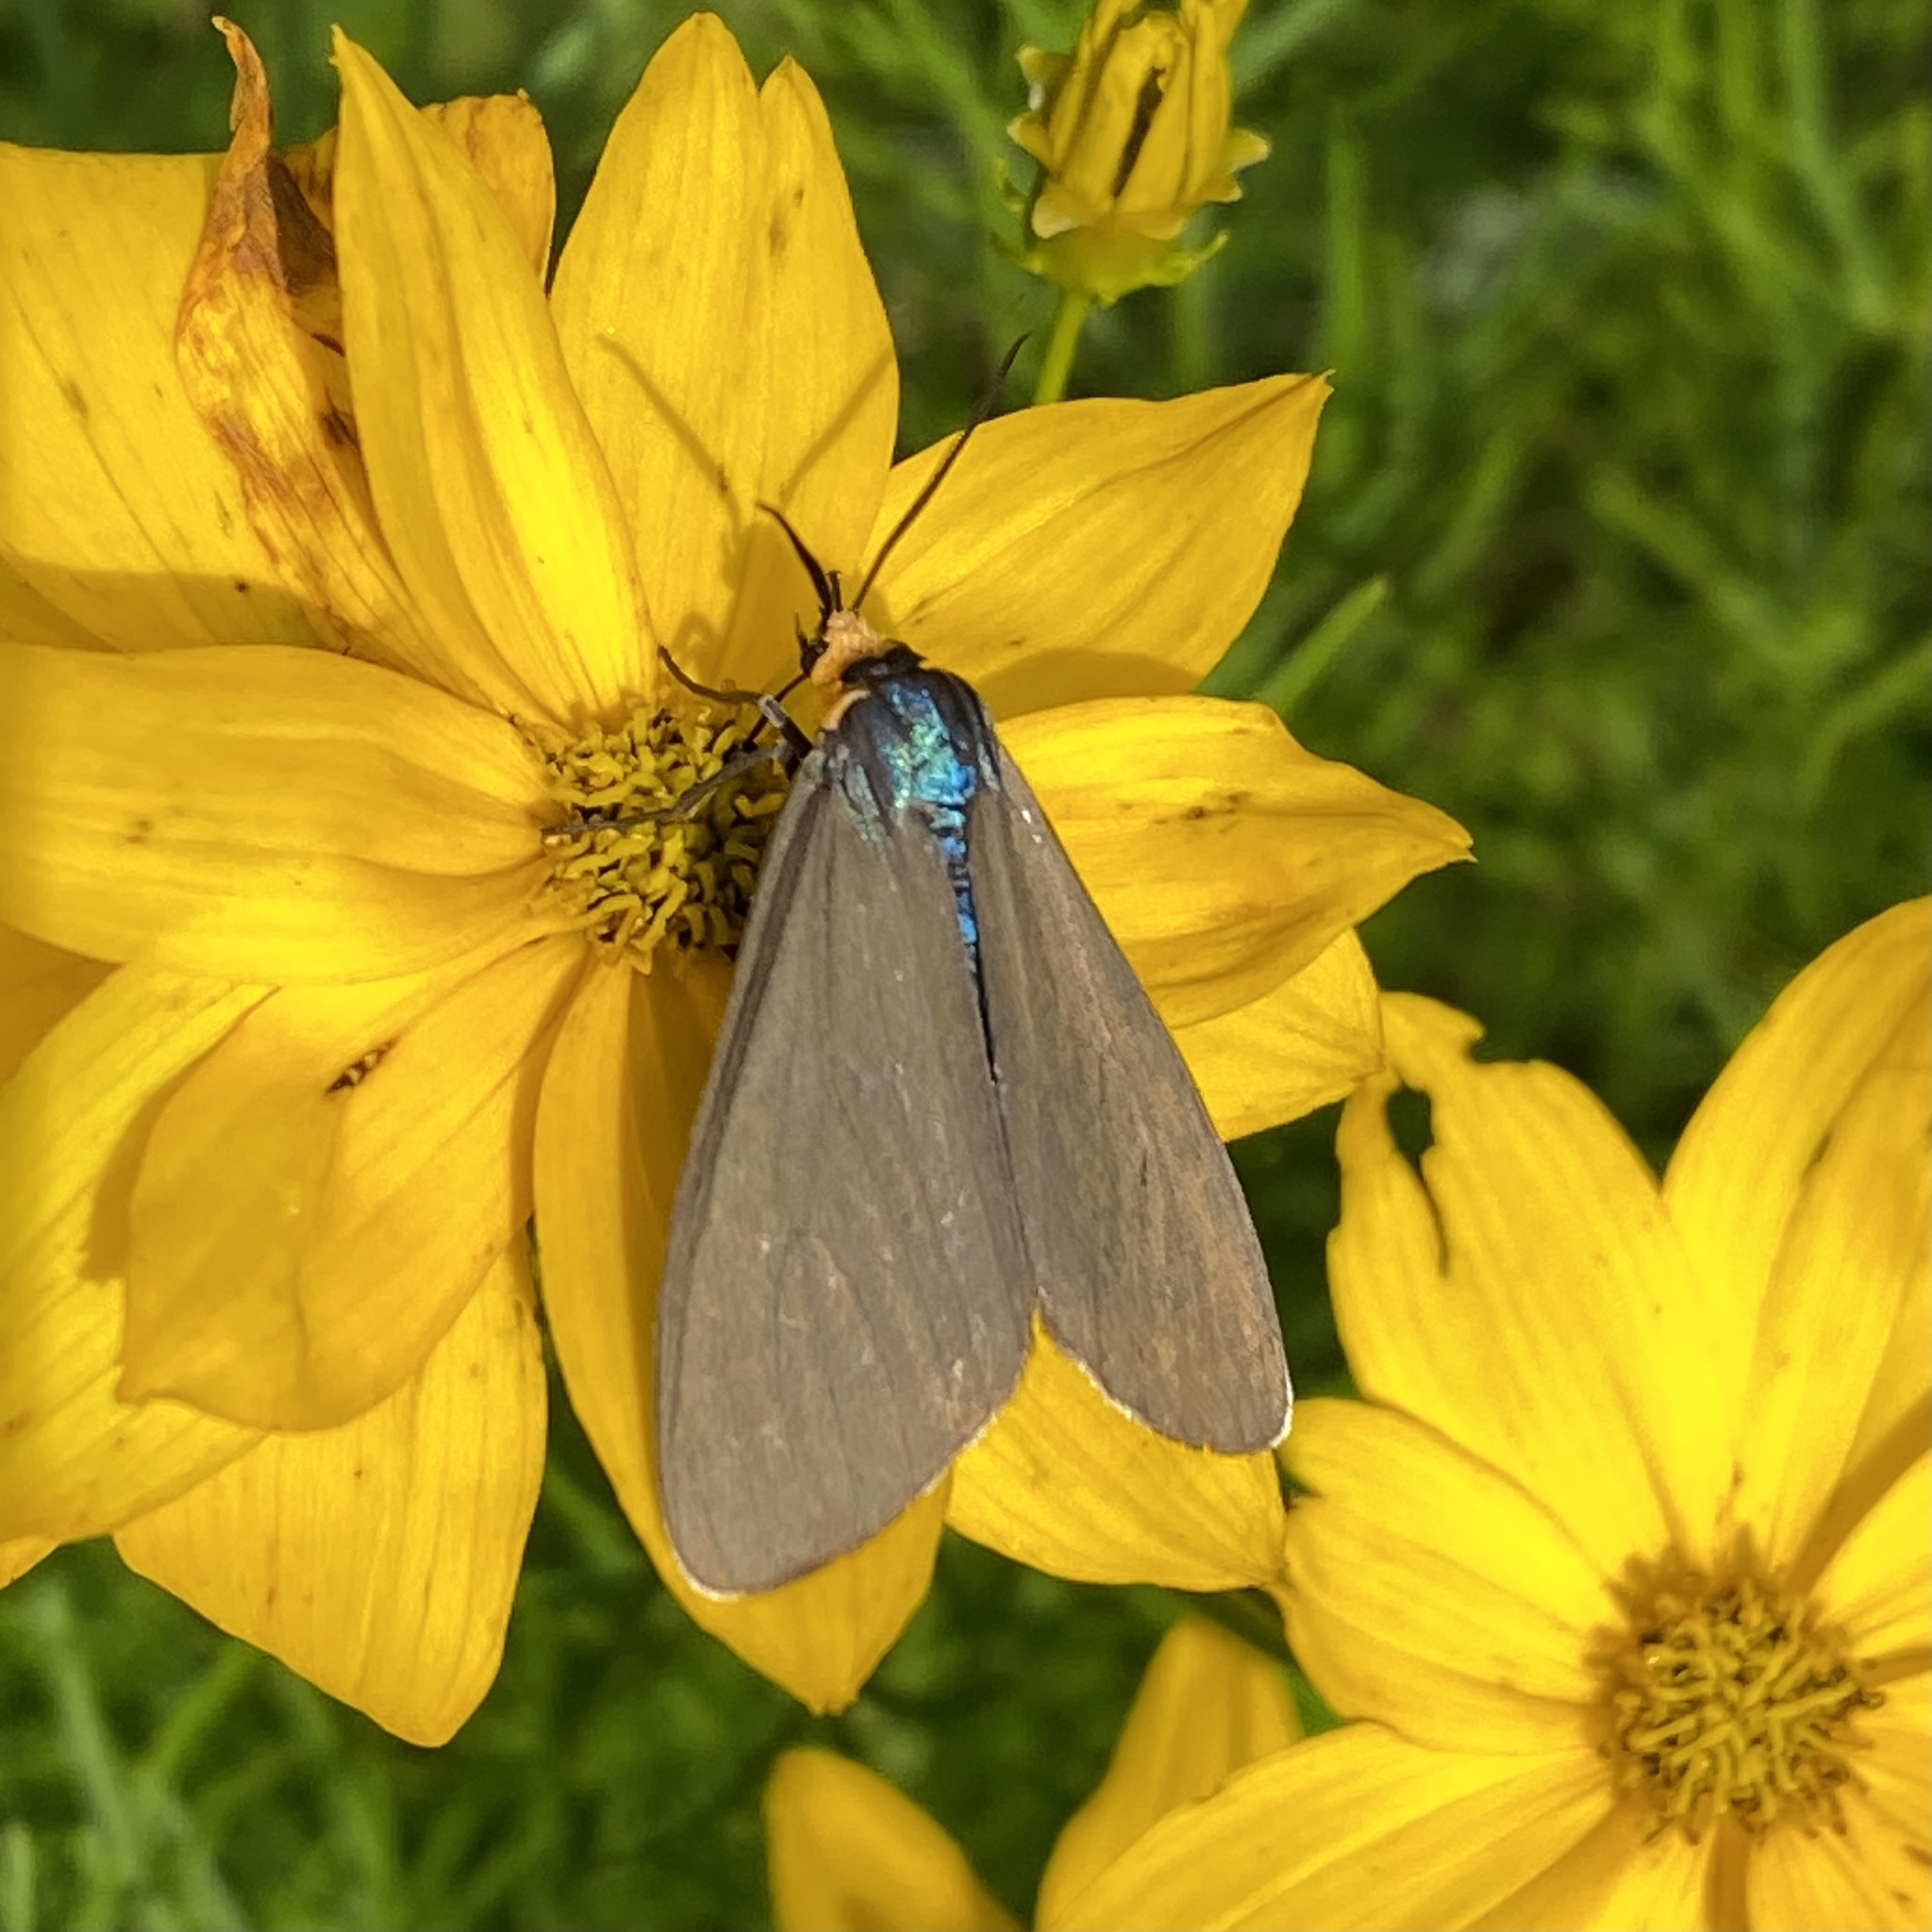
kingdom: Animalia
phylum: Arthropoda
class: Insecta
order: Lepidoptera
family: Erebidae
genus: Ctenucha
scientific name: Ctenucha virginica
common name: Virginia ctenucha moth
